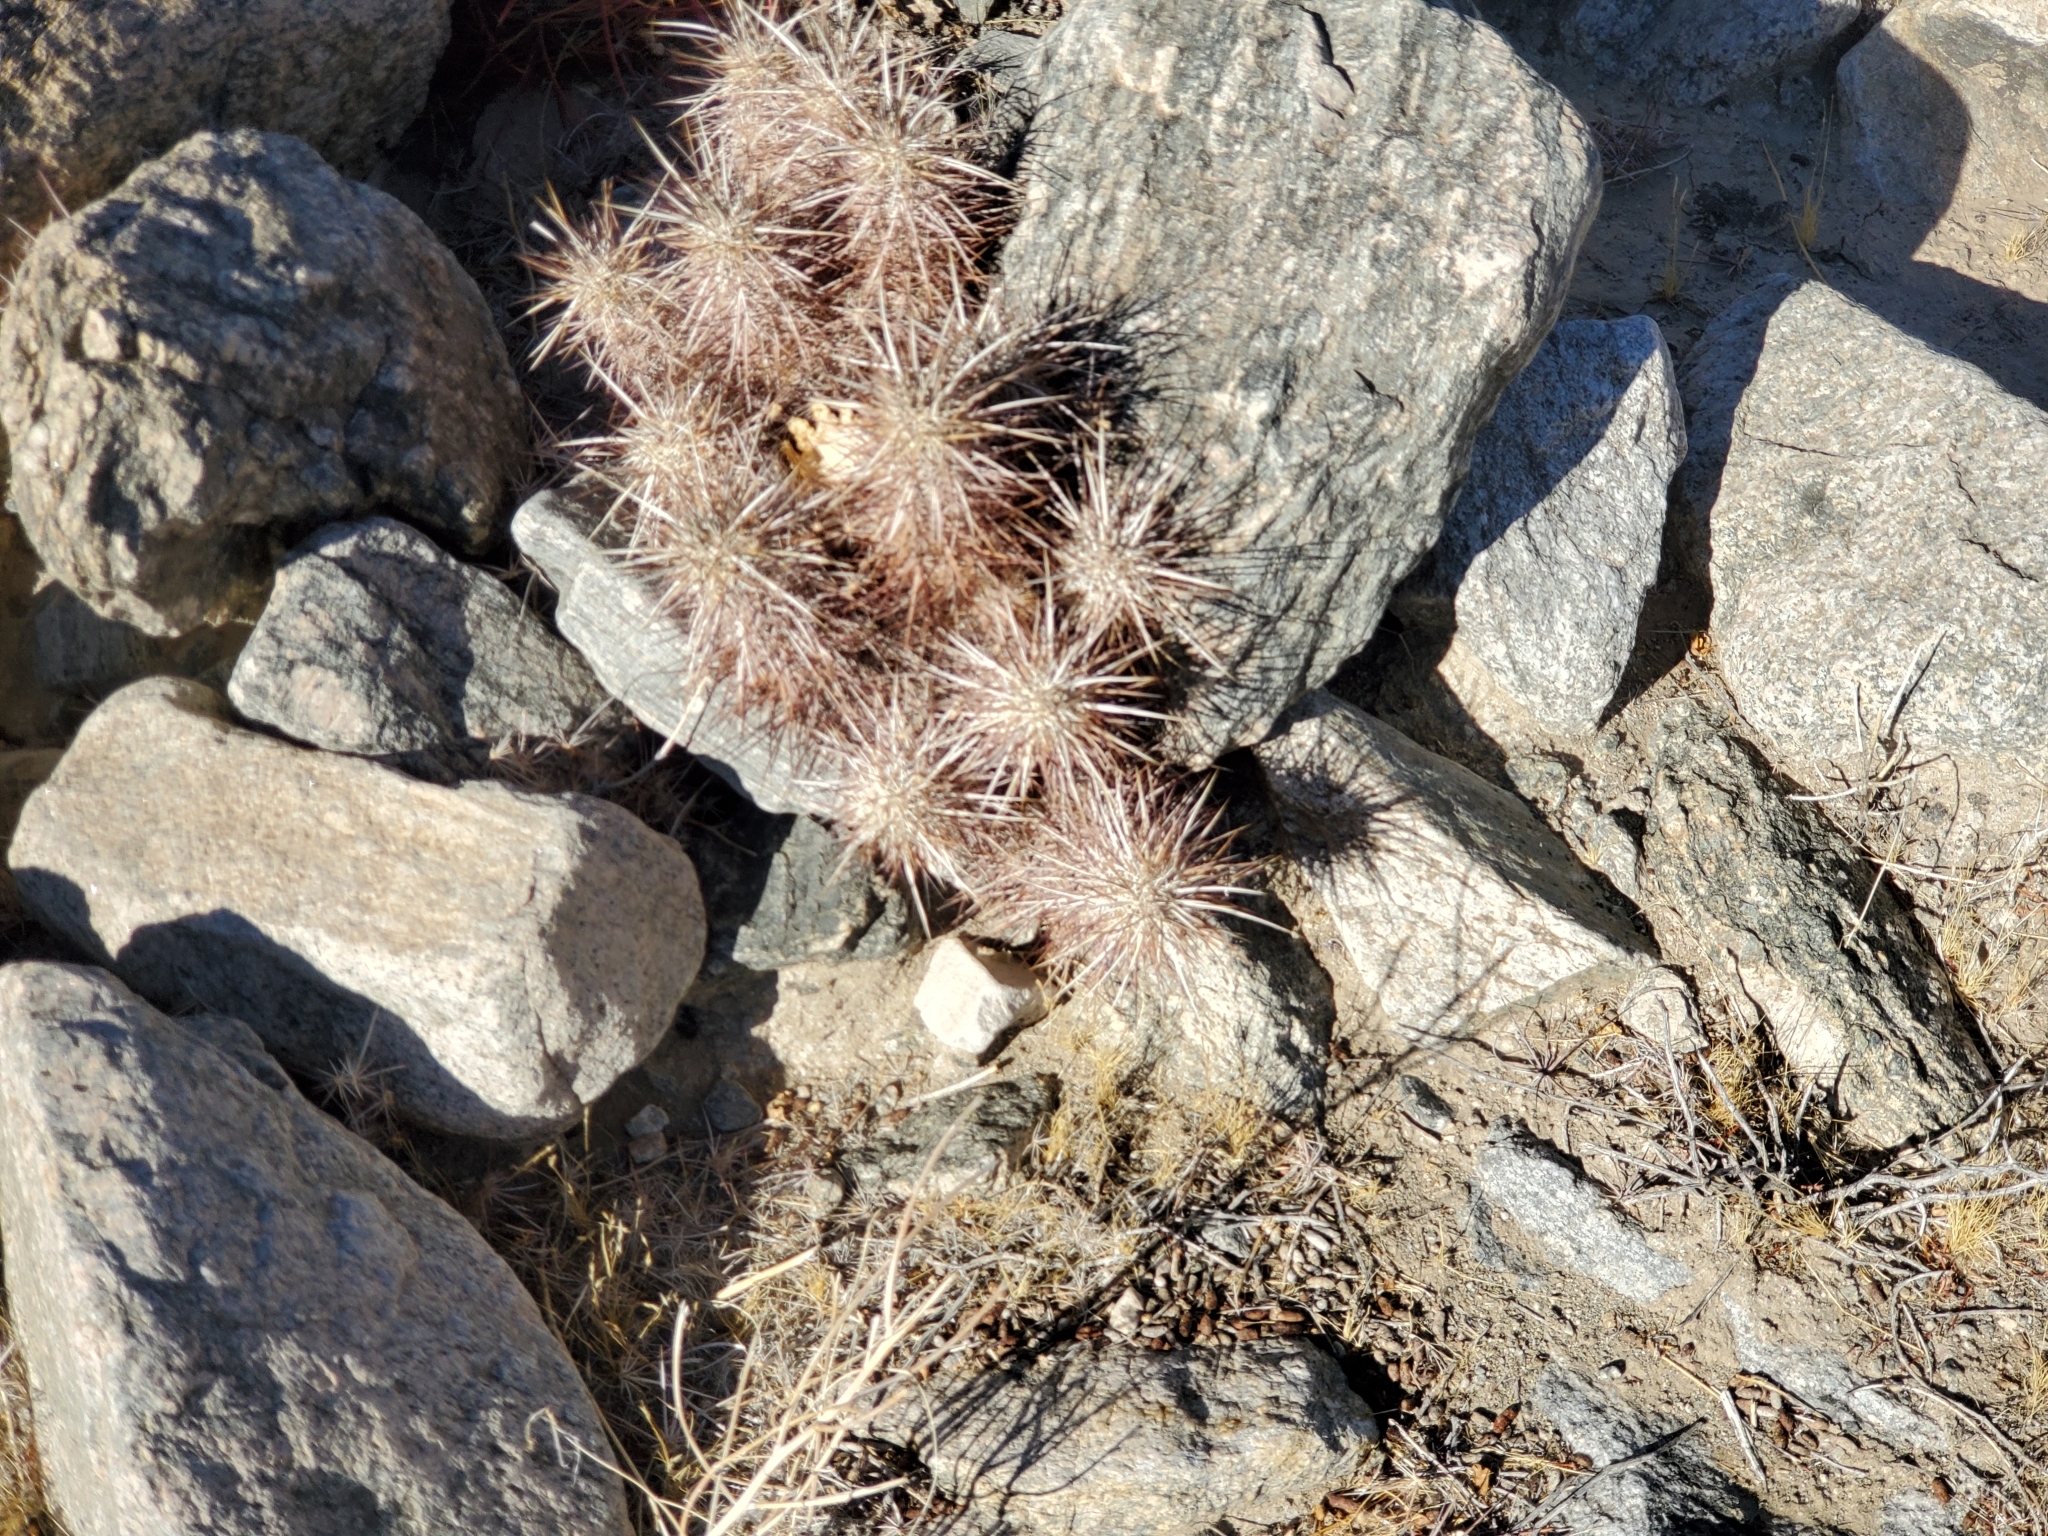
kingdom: Plantae
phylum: Tracheophyta
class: Magnoliopsida
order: Caryophyllales
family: Cactaceae
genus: Echinocereus
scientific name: Echinocereus engelmannii
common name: Engelmann's hedgehog cactus
